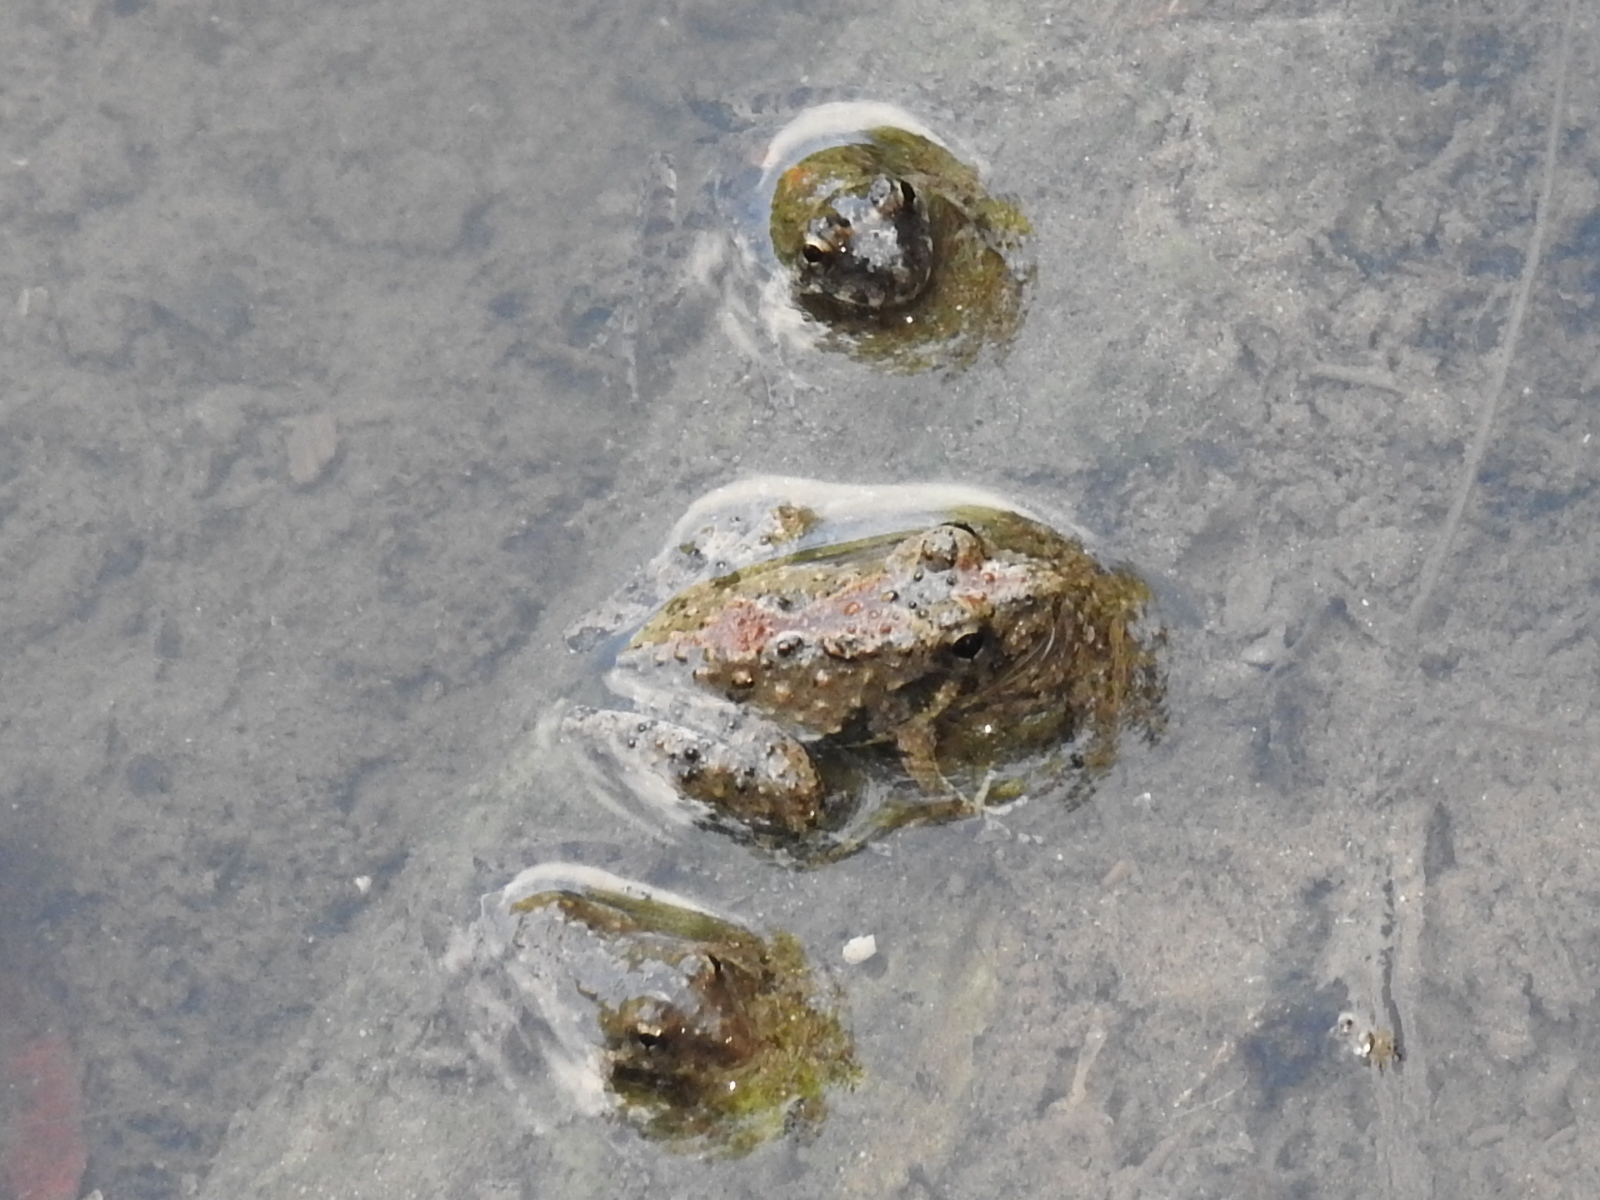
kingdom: Animalia
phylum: Chordata
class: Amphibia
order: Anura
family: Hylidae
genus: Acris
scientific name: Acris blanchardi
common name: Blanchard's cricket frog
